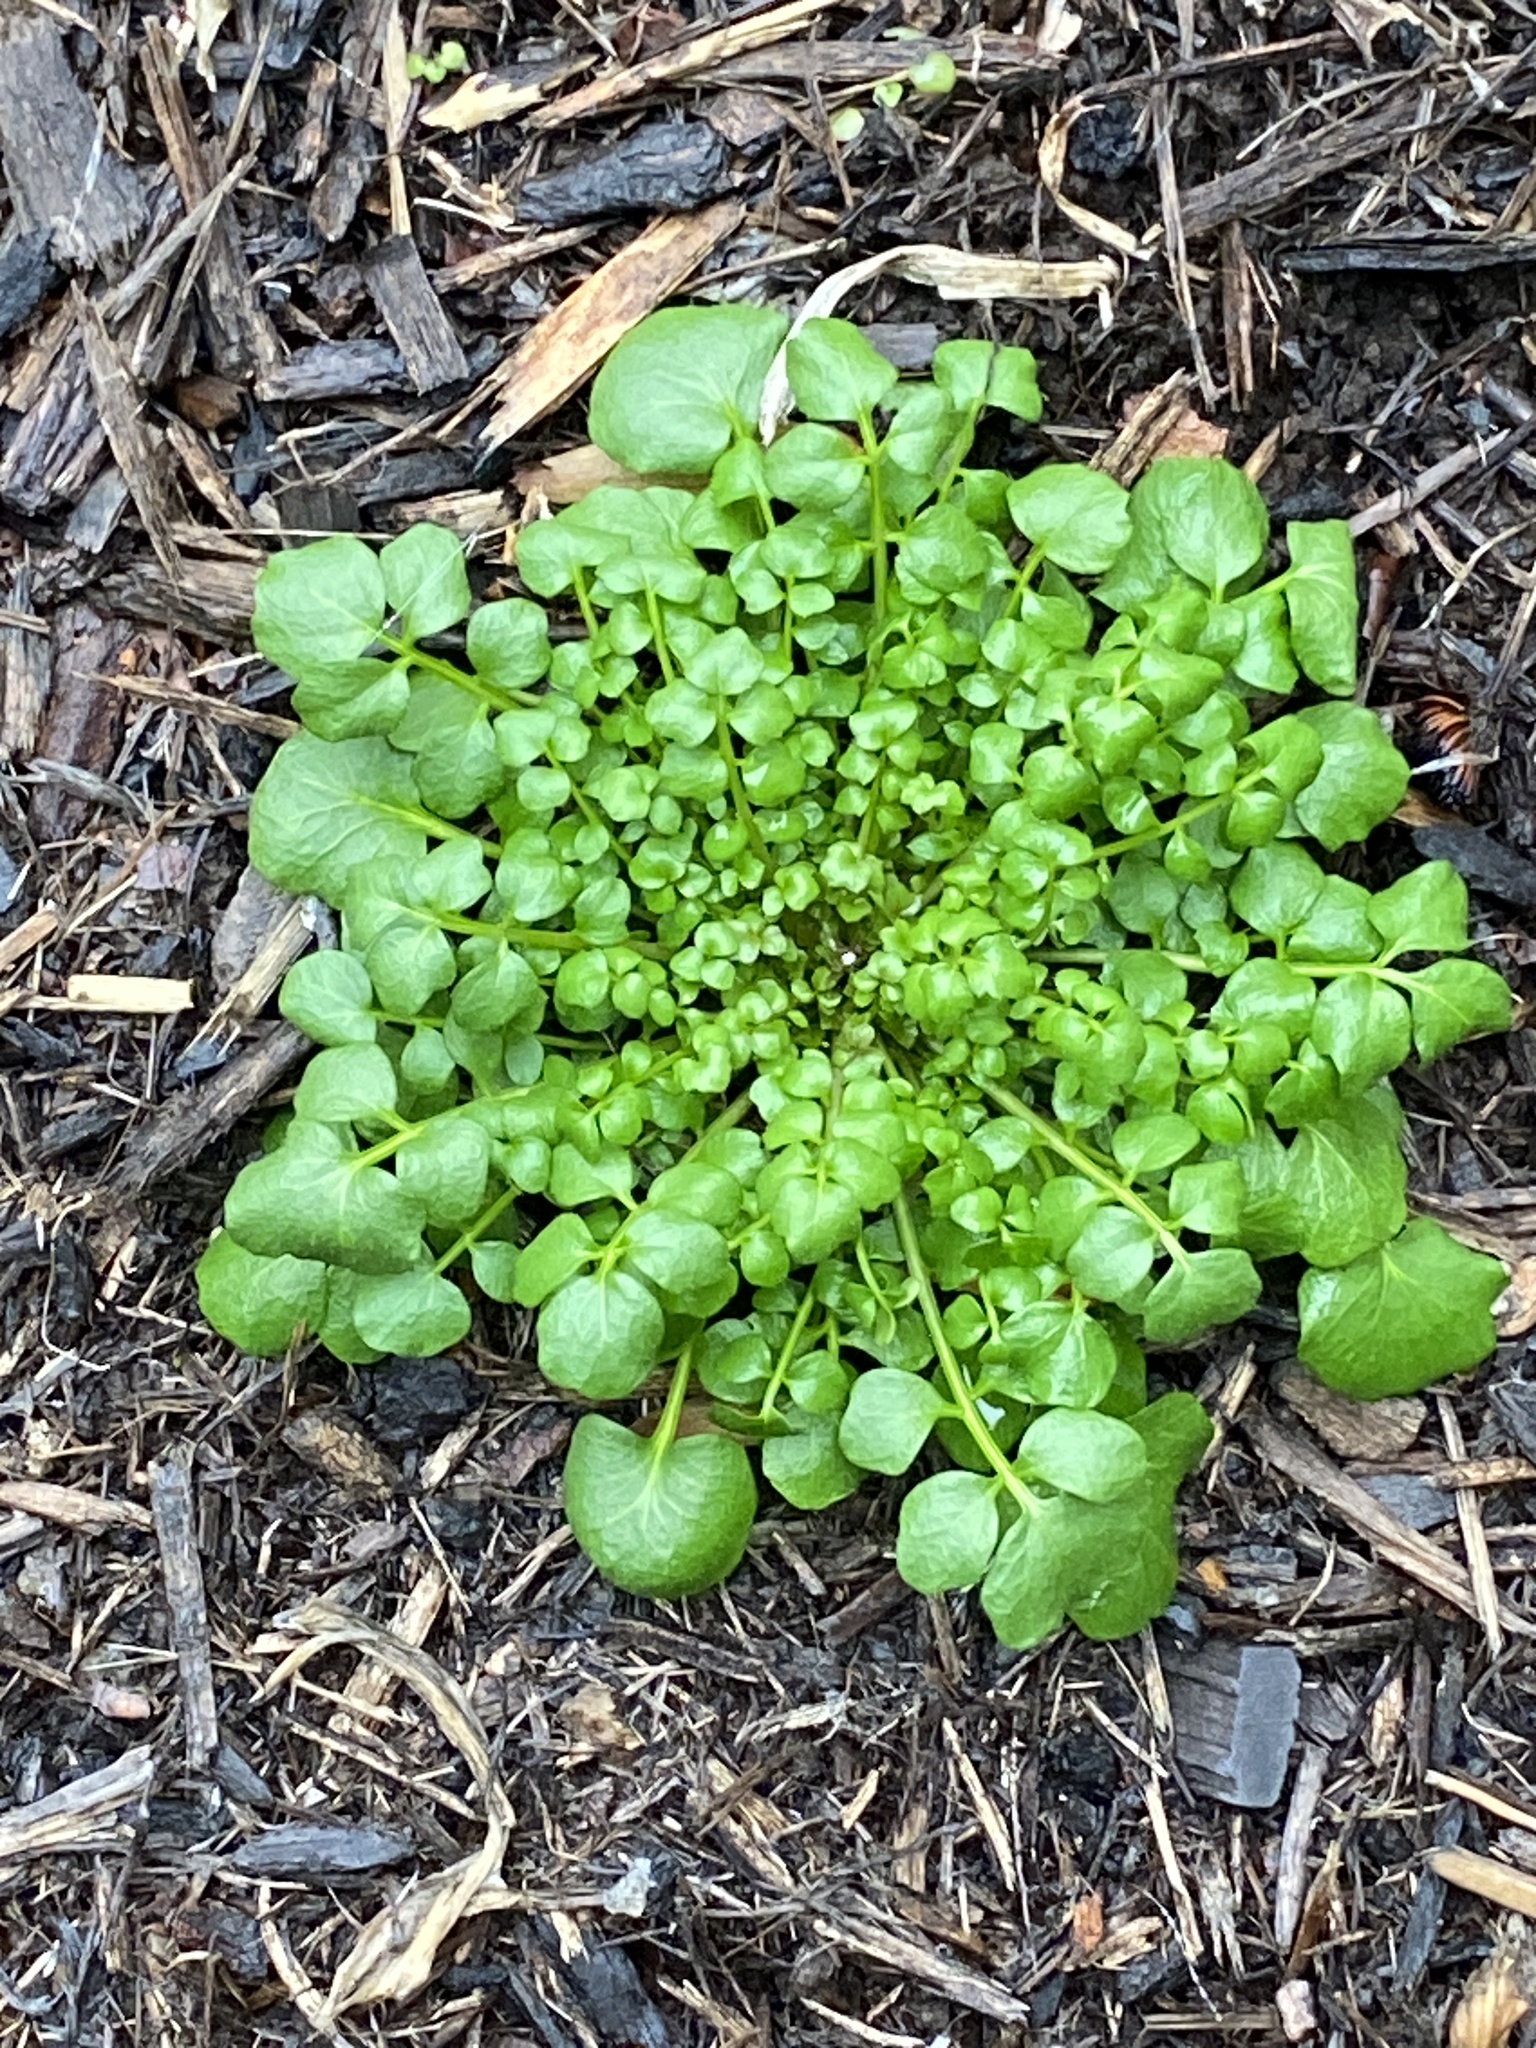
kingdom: Plantae
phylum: Tracheophyta
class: Magnoliopsida
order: Brassicales
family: Brassicaceae
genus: Cardamine
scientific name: Cardamine hirsuta
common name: Hairy bittercress
